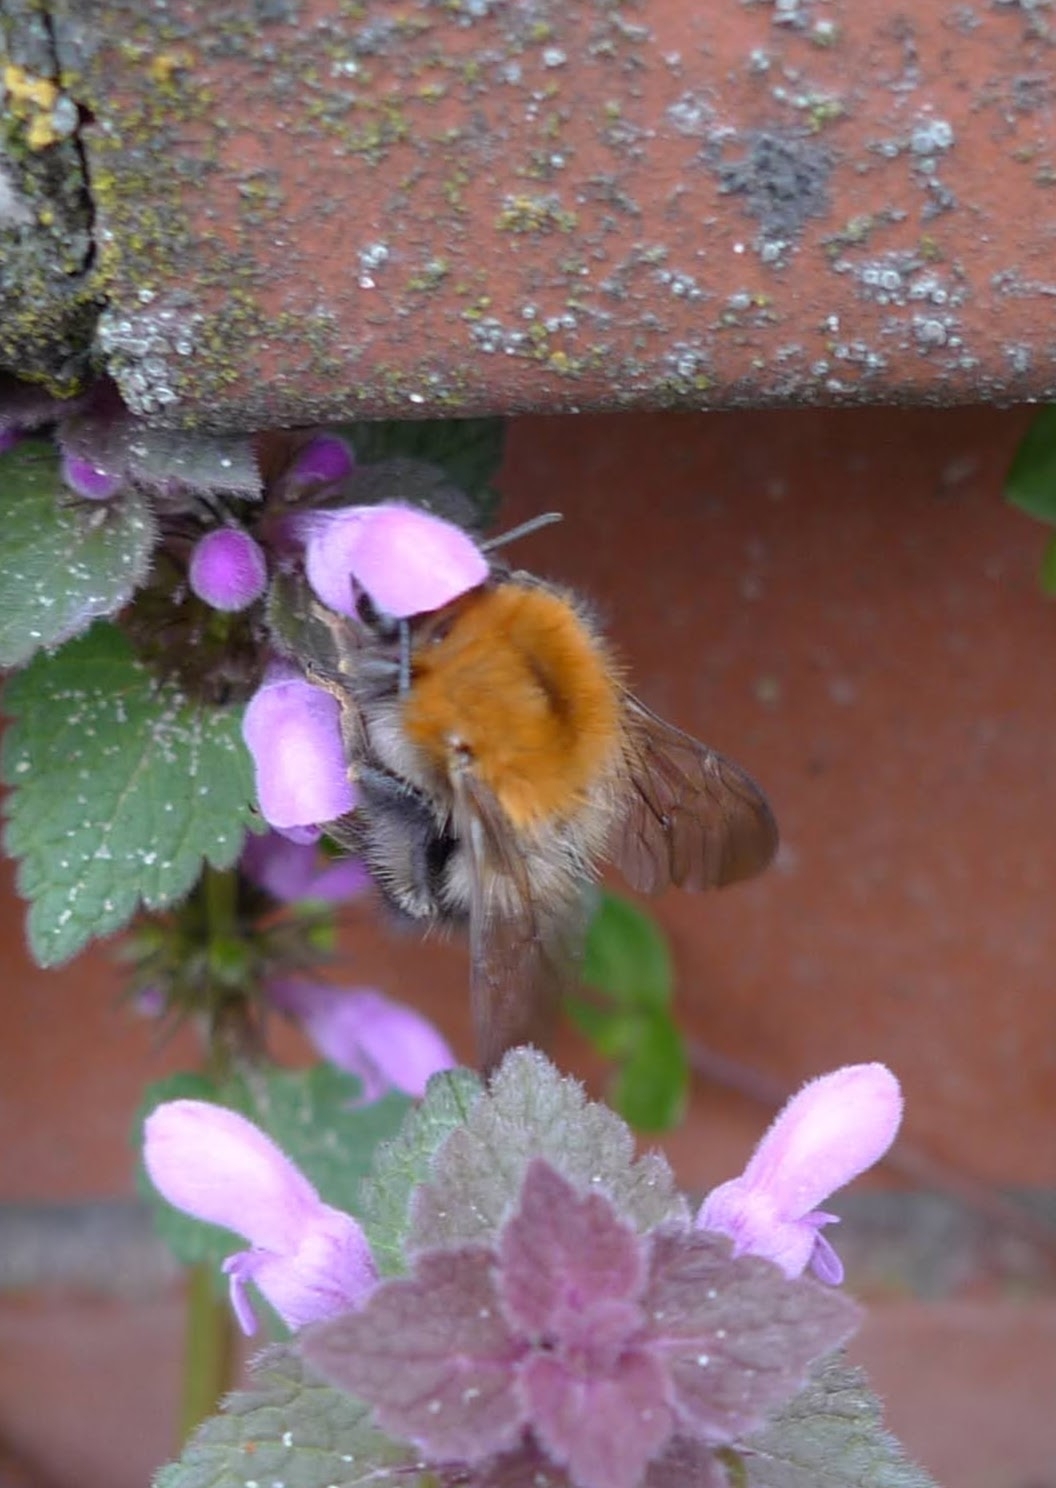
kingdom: Animalia
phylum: Arthropoda
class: Insecta
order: Hymenoptera
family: Apidae
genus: Bombus
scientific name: Bombus pascuorum
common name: Common carder bee
